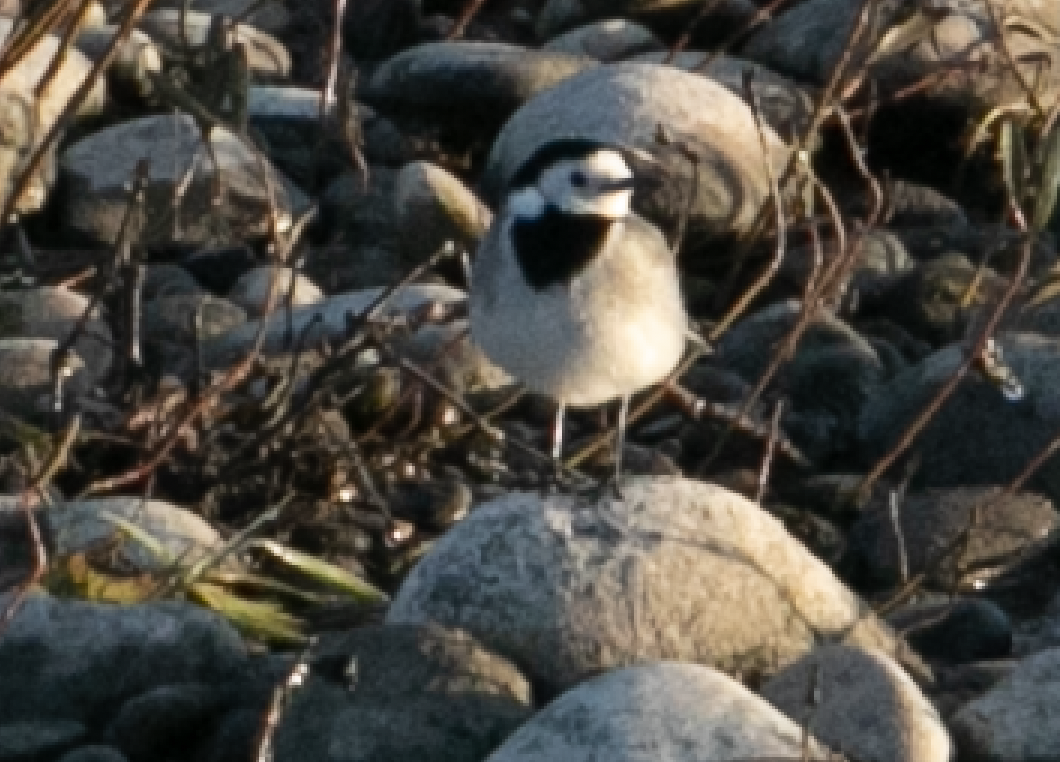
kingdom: Animalia
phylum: Chordata
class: Aves
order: Passeriformes
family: Motacillidae
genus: Motacilla
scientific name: Motacilla alba
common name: White wagtail
